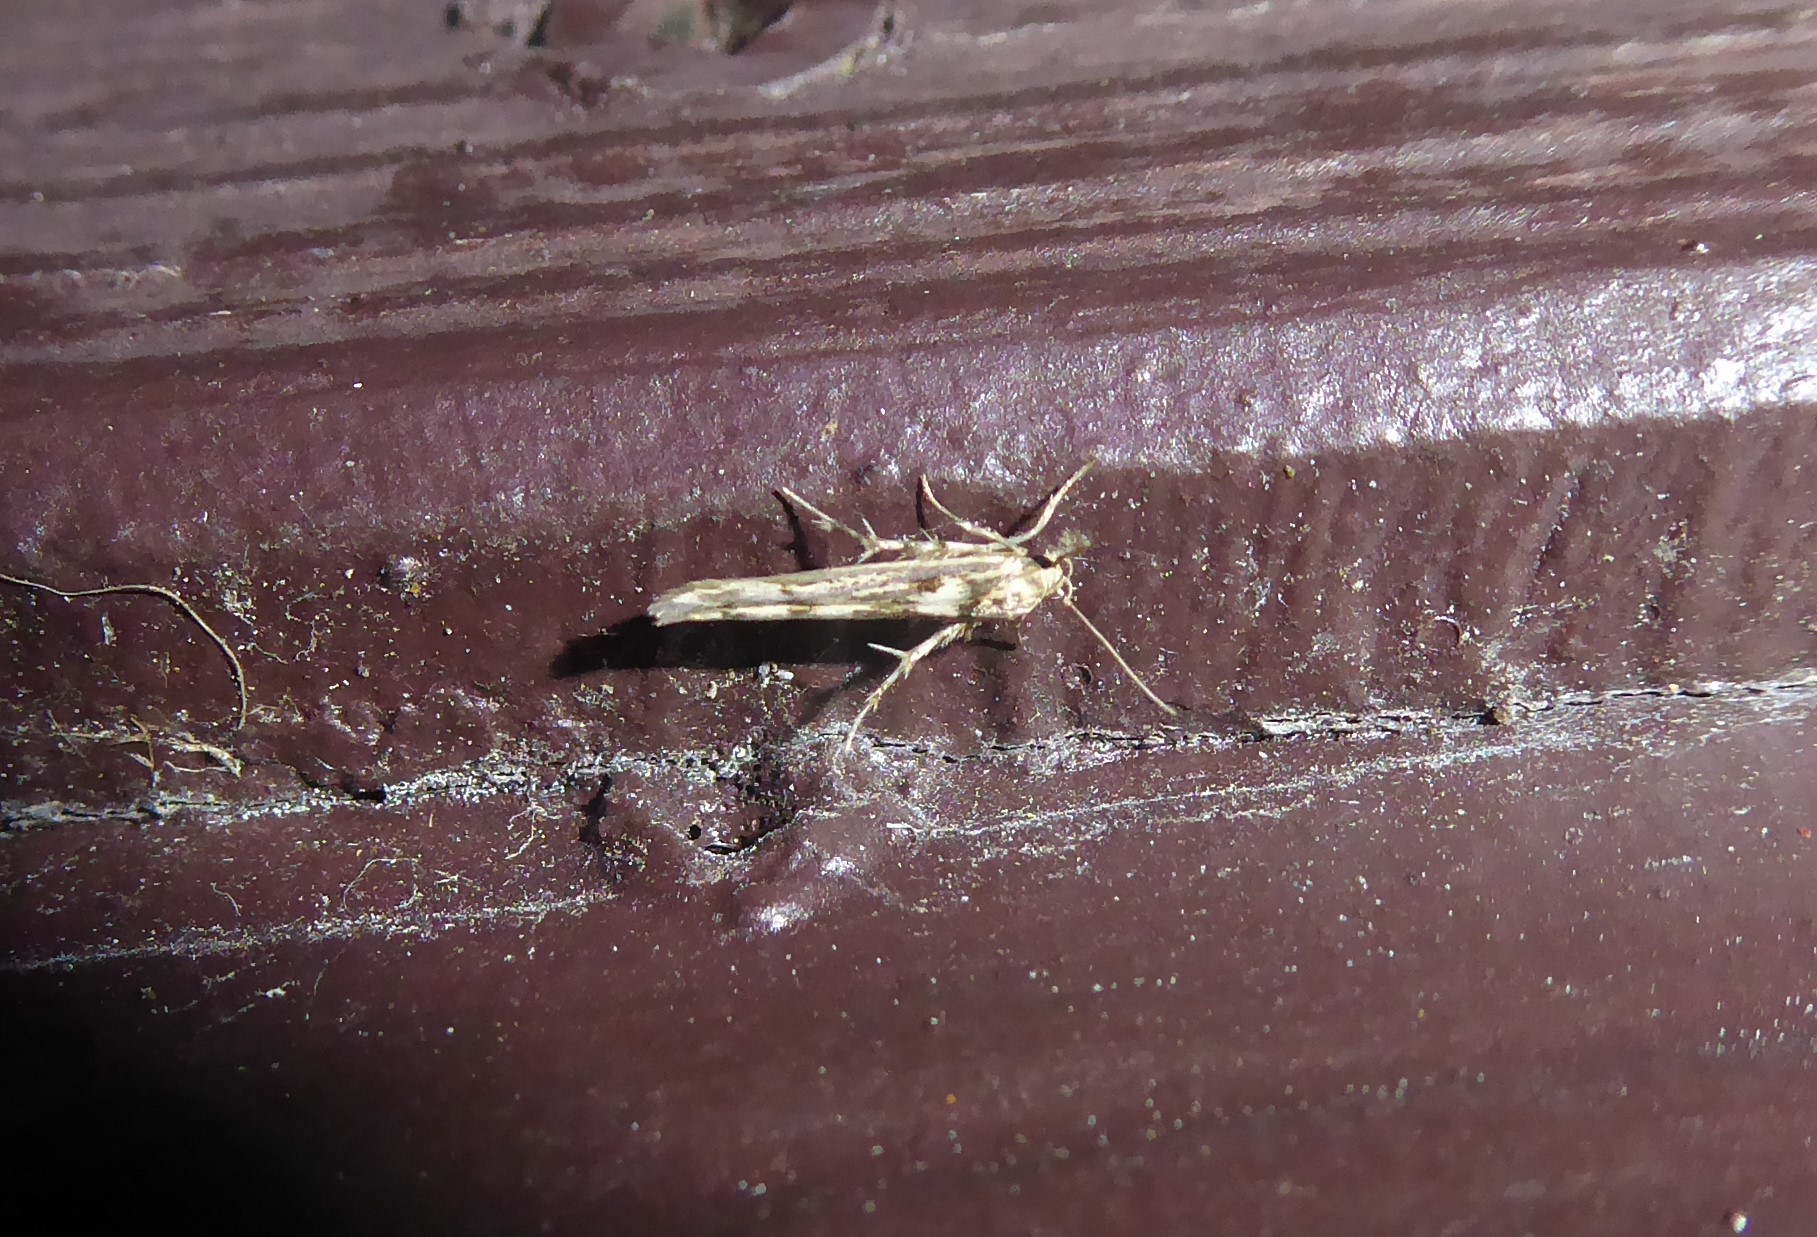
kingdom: Animalia
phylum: Arthropoda
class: Insecta
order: Lepidoptera
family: Stathmopodidae
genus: Stathmopoda
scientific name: Stathmopoda plumbiflua
